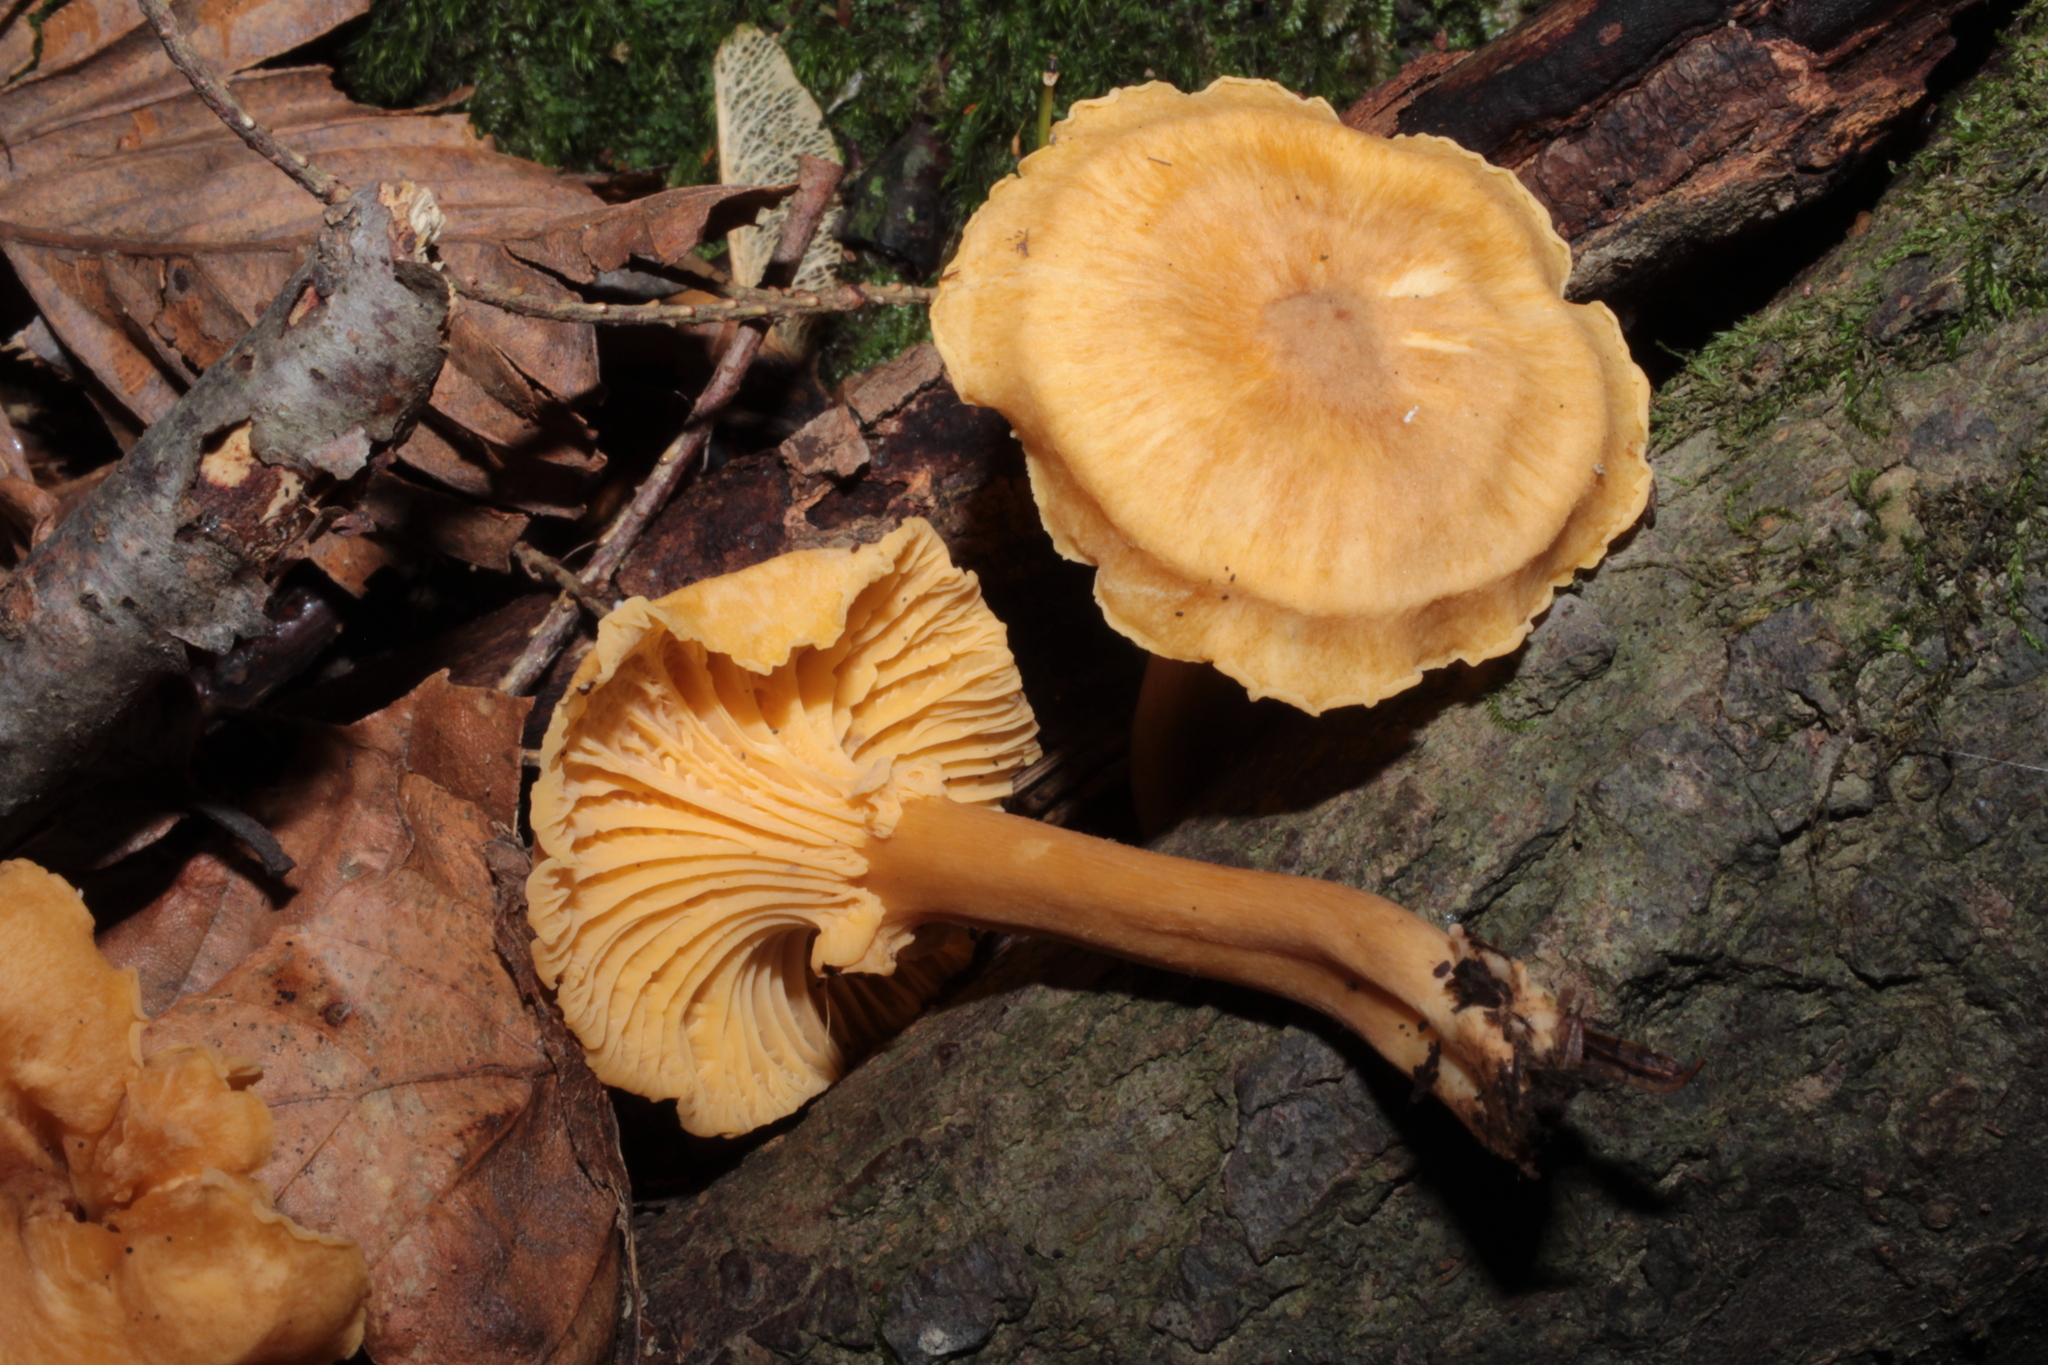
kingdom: Fungi
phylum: Basidiomycota
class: Agaricomycetes
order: Cantharellales
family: Hydnaceae
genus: Cantharellus
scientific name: Cantharellus appalachiensis
